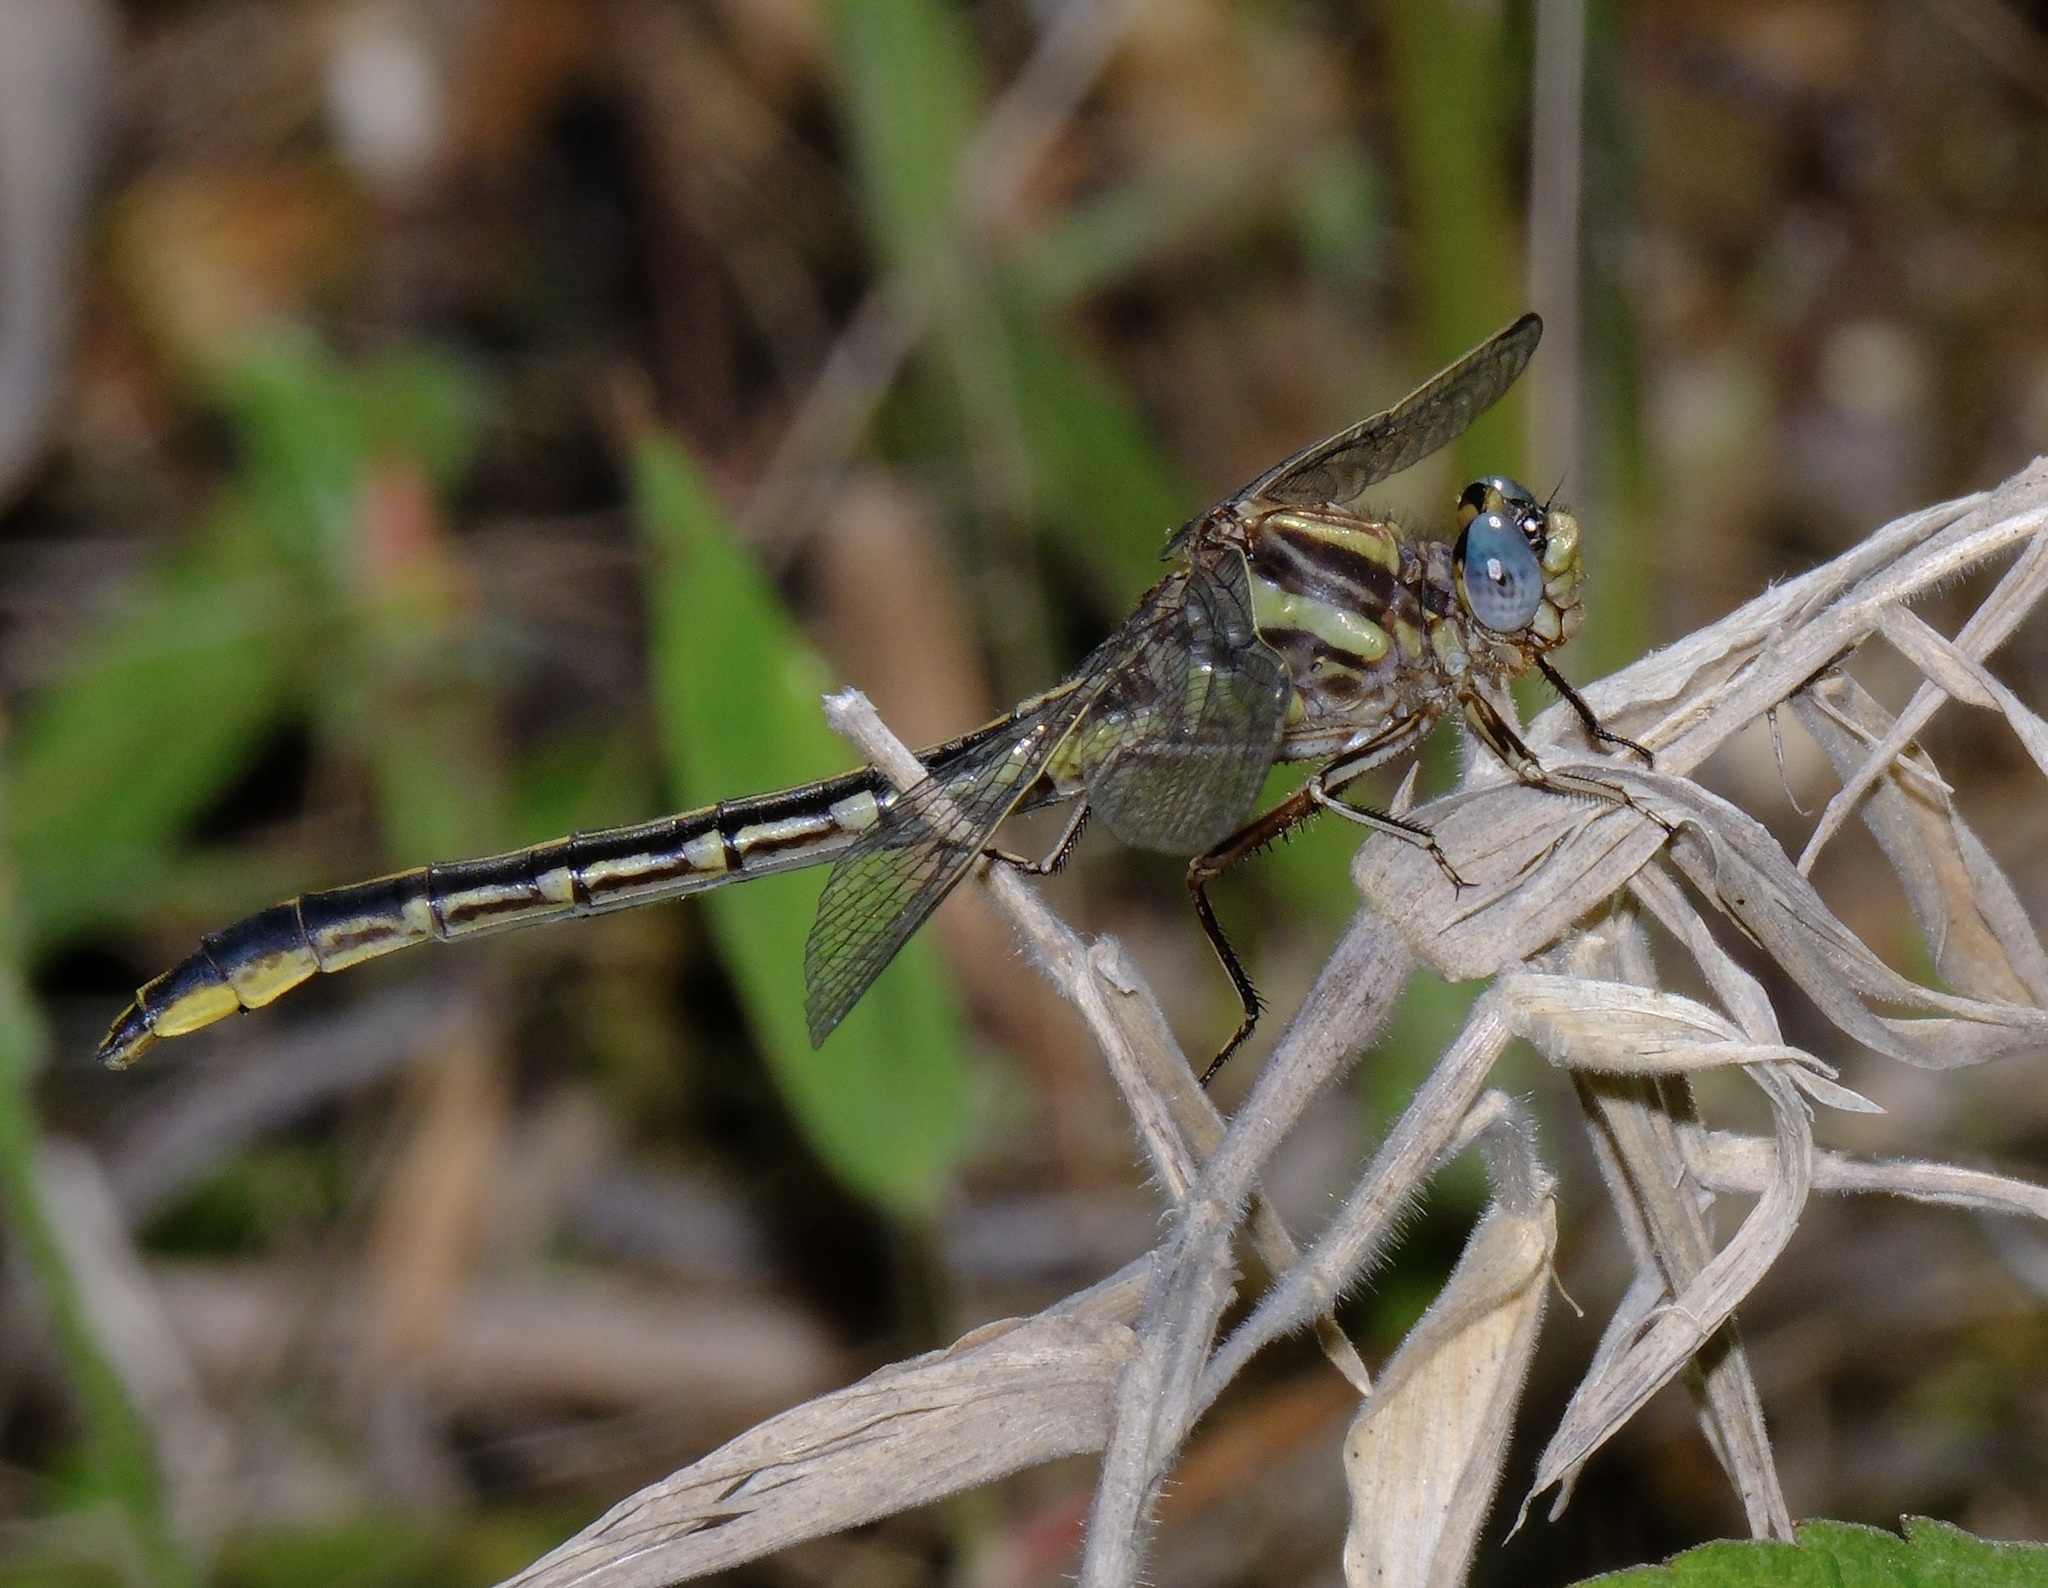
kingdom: Animalia
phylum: Arthropoda
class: Insecta
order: Odonata
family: Gomphidae
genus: Phanogomphus
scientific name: Phanogomphus oklahomensis
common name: Oklahoma clubtail
